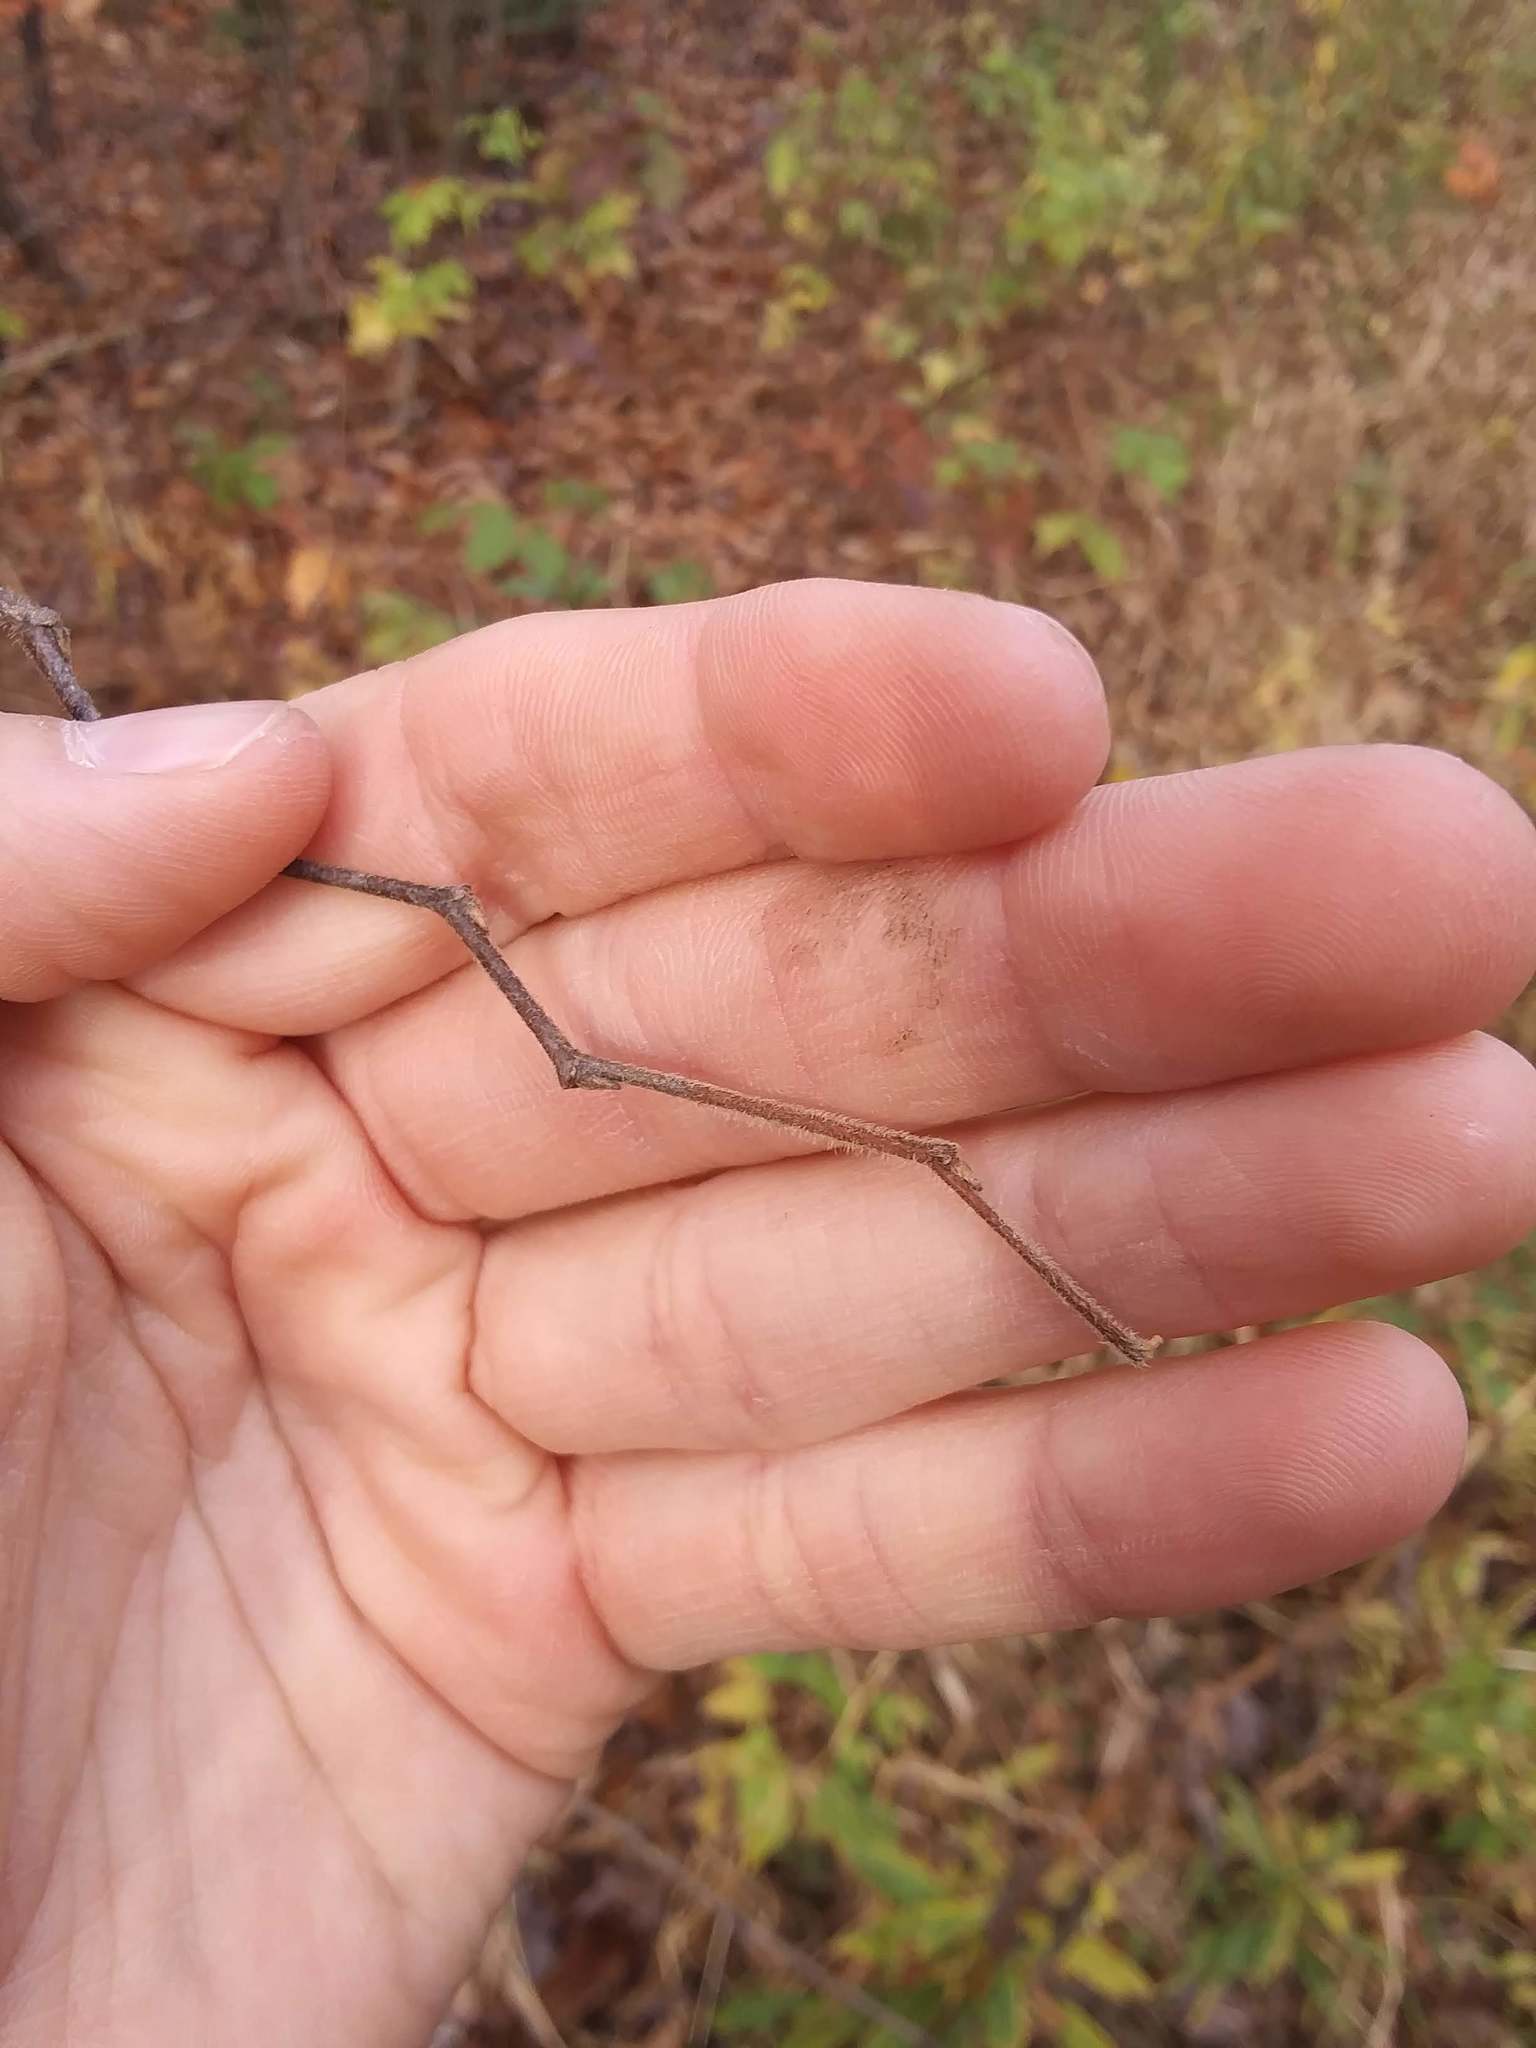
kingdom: Plantae
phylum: Tracheophyta
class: Magnoliopsida
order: Rosales
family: Cannabaceae
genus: Celtis
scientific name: Celtis occidentalis
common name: Common hackberry
